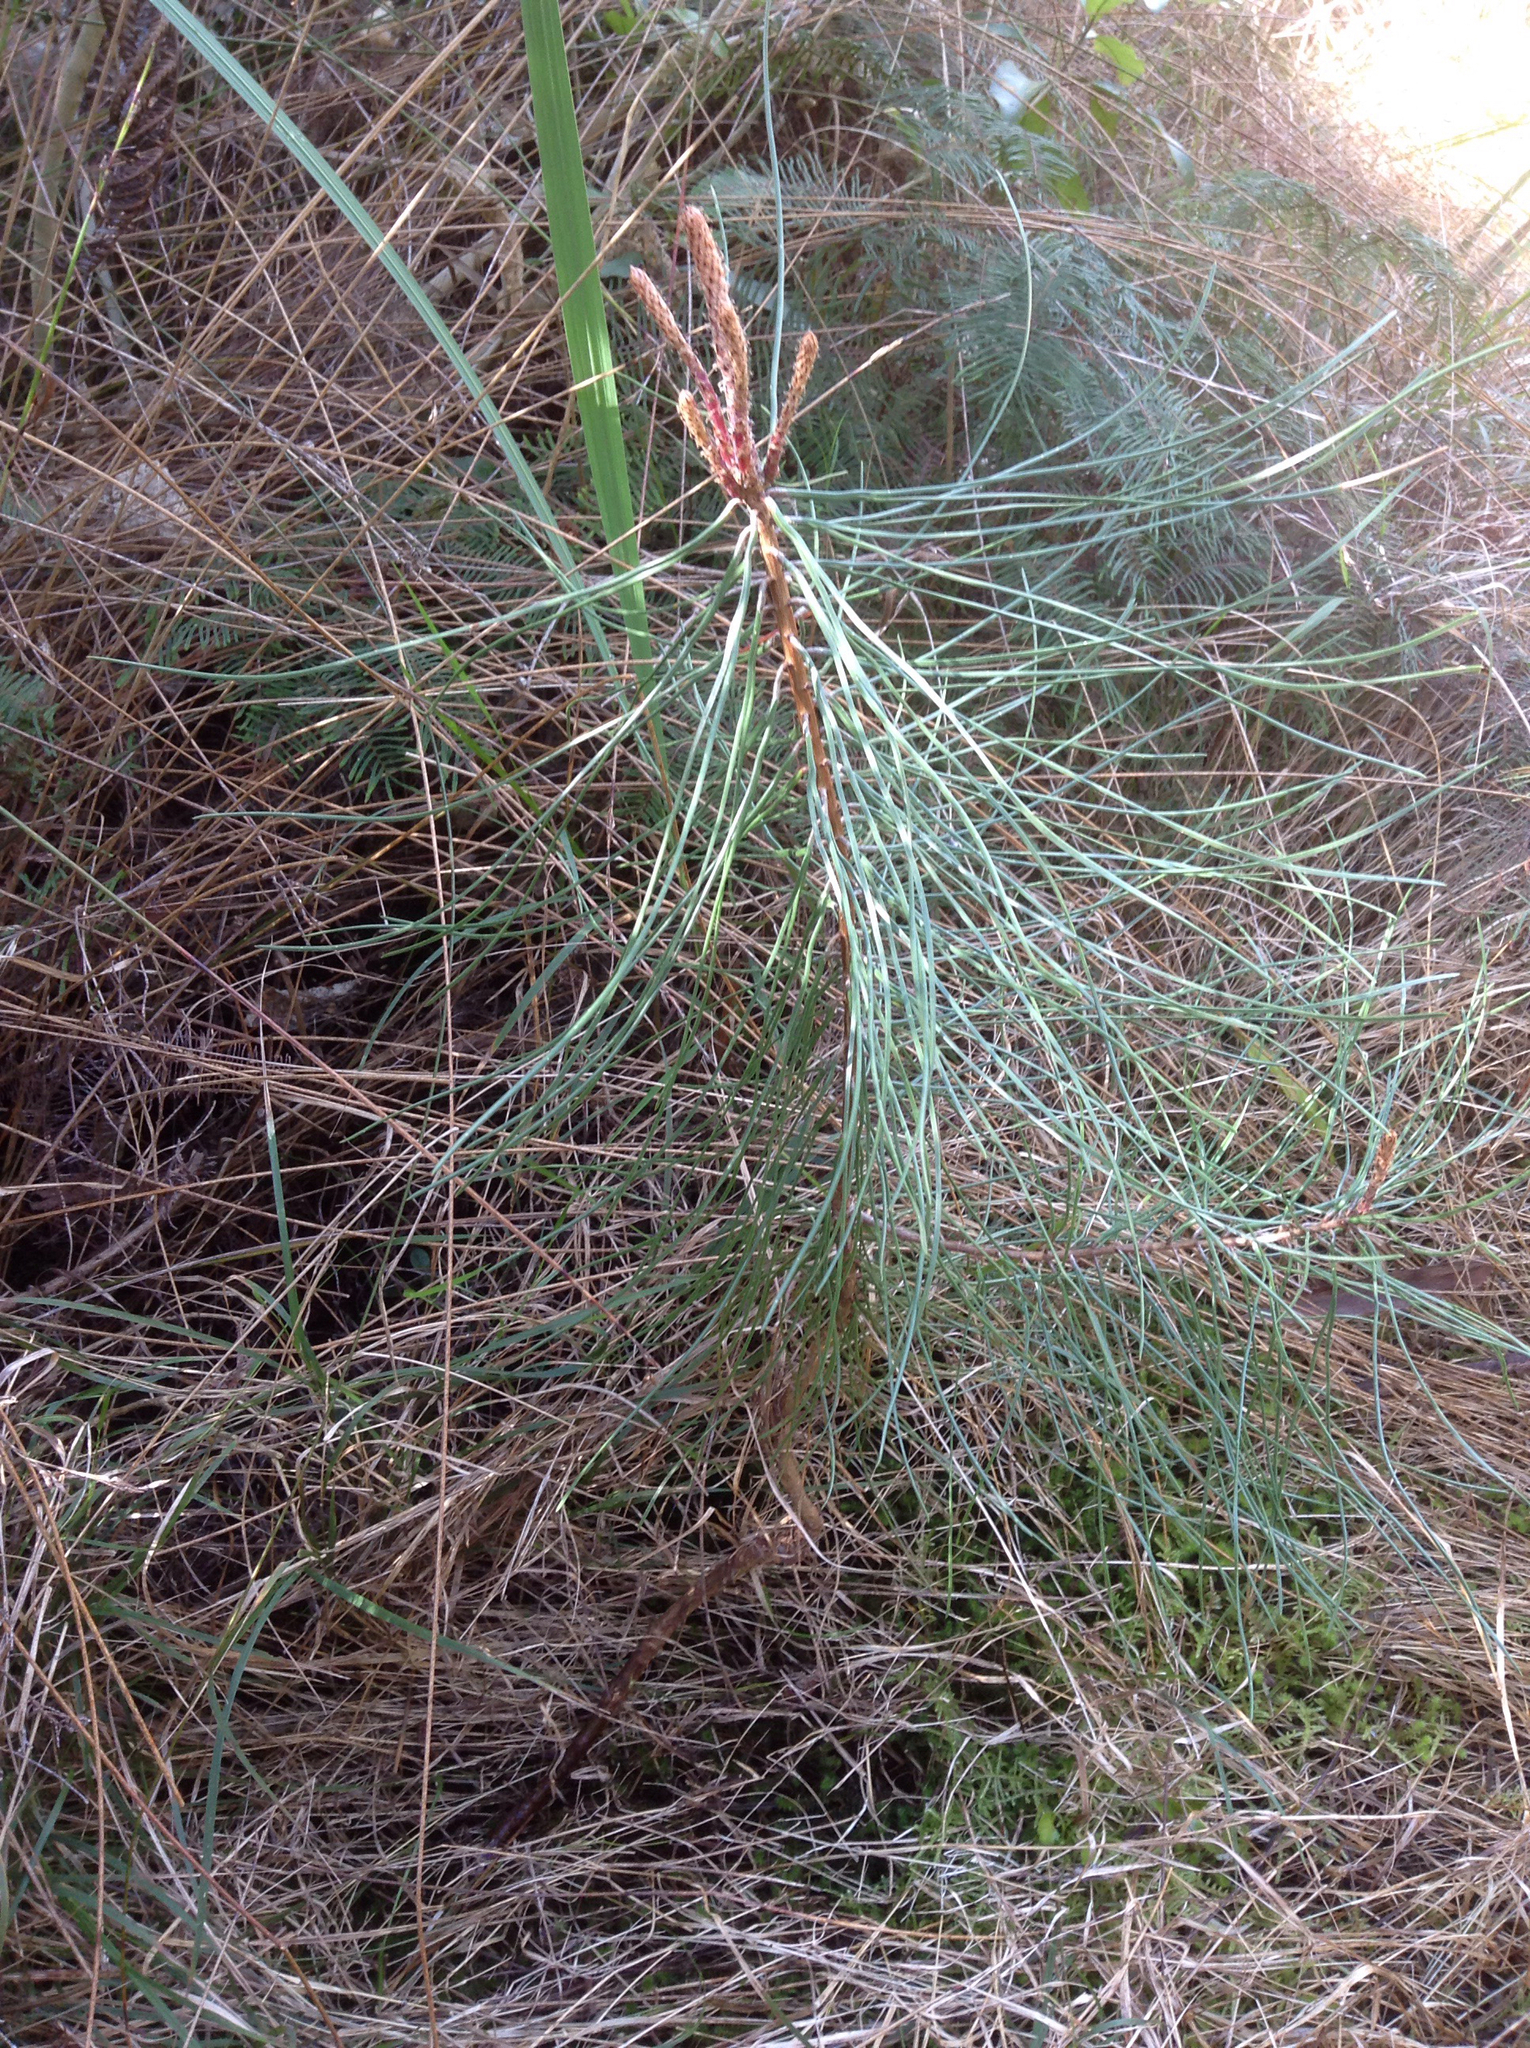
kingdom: Plantae
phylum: Tracheophyta
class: Pinopsida
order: Pinales
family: Pinaceae
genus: Pinus
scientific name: Pinus pinaster
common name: Maritime pine
